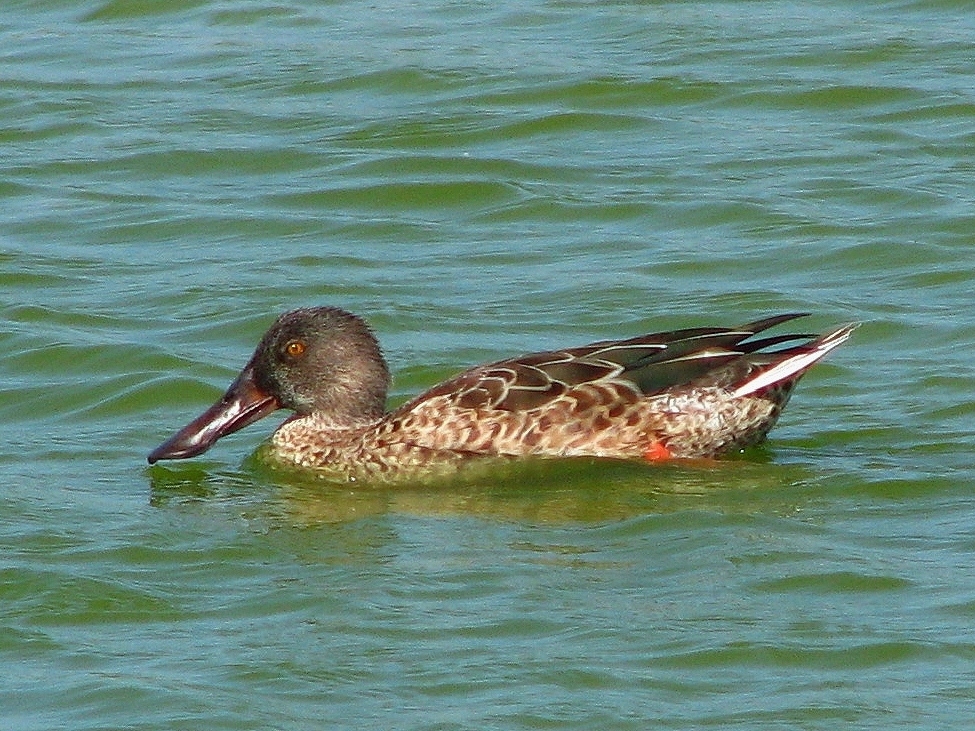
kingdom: Animalia
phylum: Chordata
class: Aves
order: Anseriformes
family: Anatidae
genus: Spatula
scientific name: Spatula clypeata
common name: Northern shoveler
